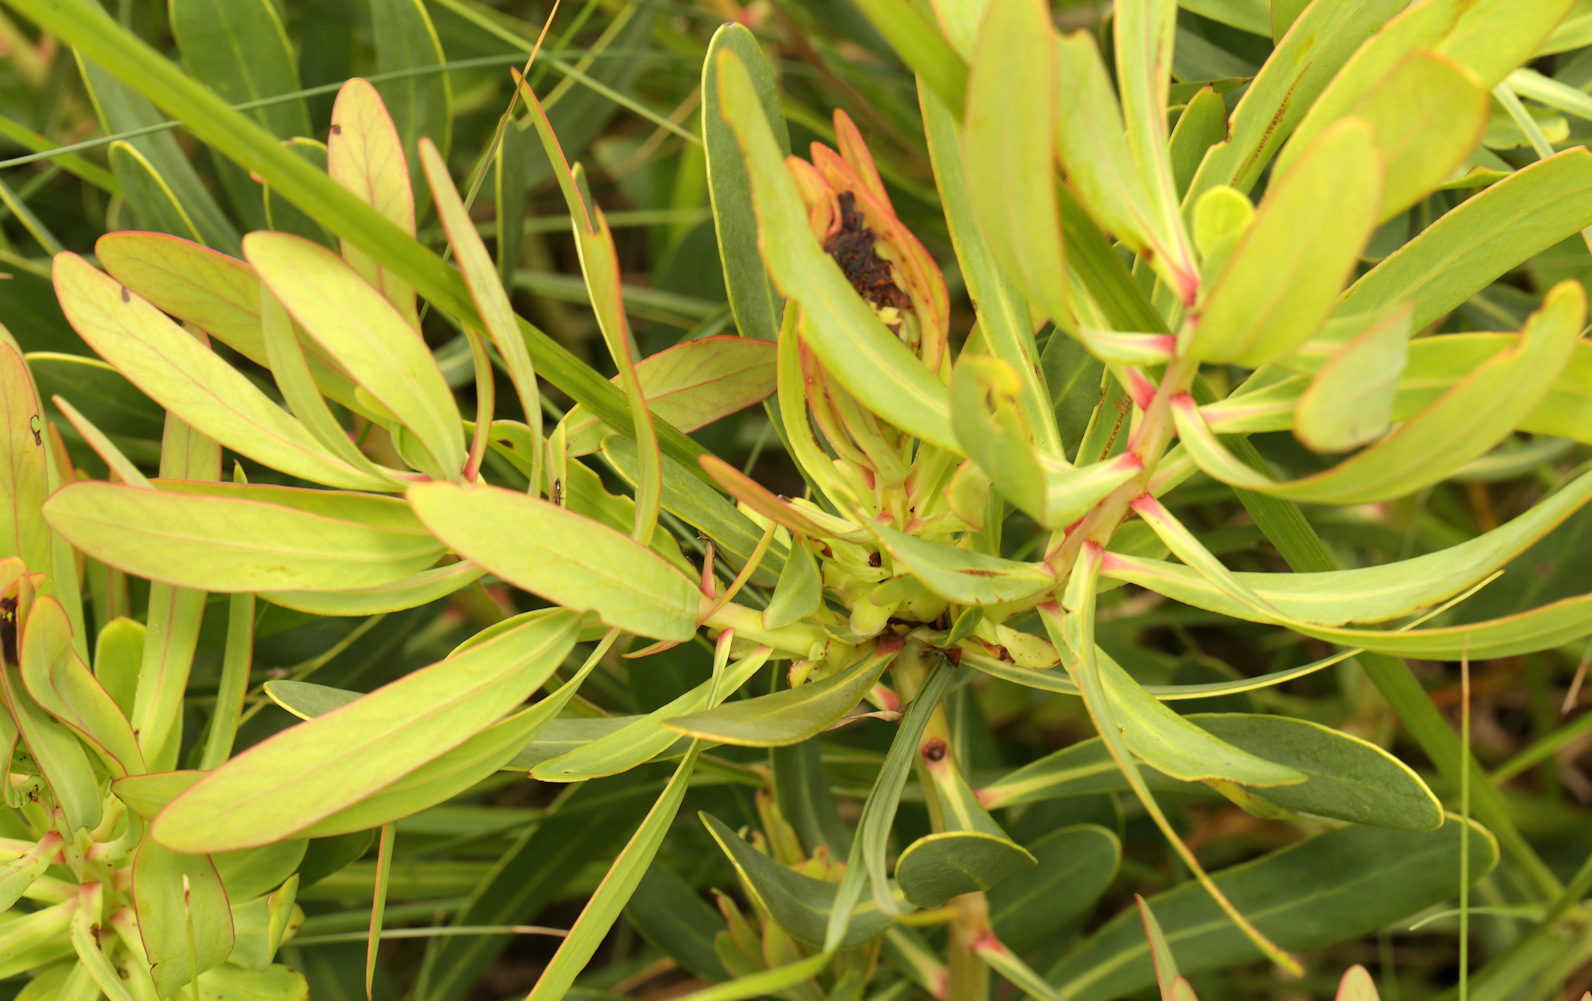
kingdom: Plantae
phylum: Tracheophyta
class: Magnoliopsida
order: Proteales
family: Proteaceae
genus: Protea
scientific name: Protea caffra
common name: Common sugarbush
